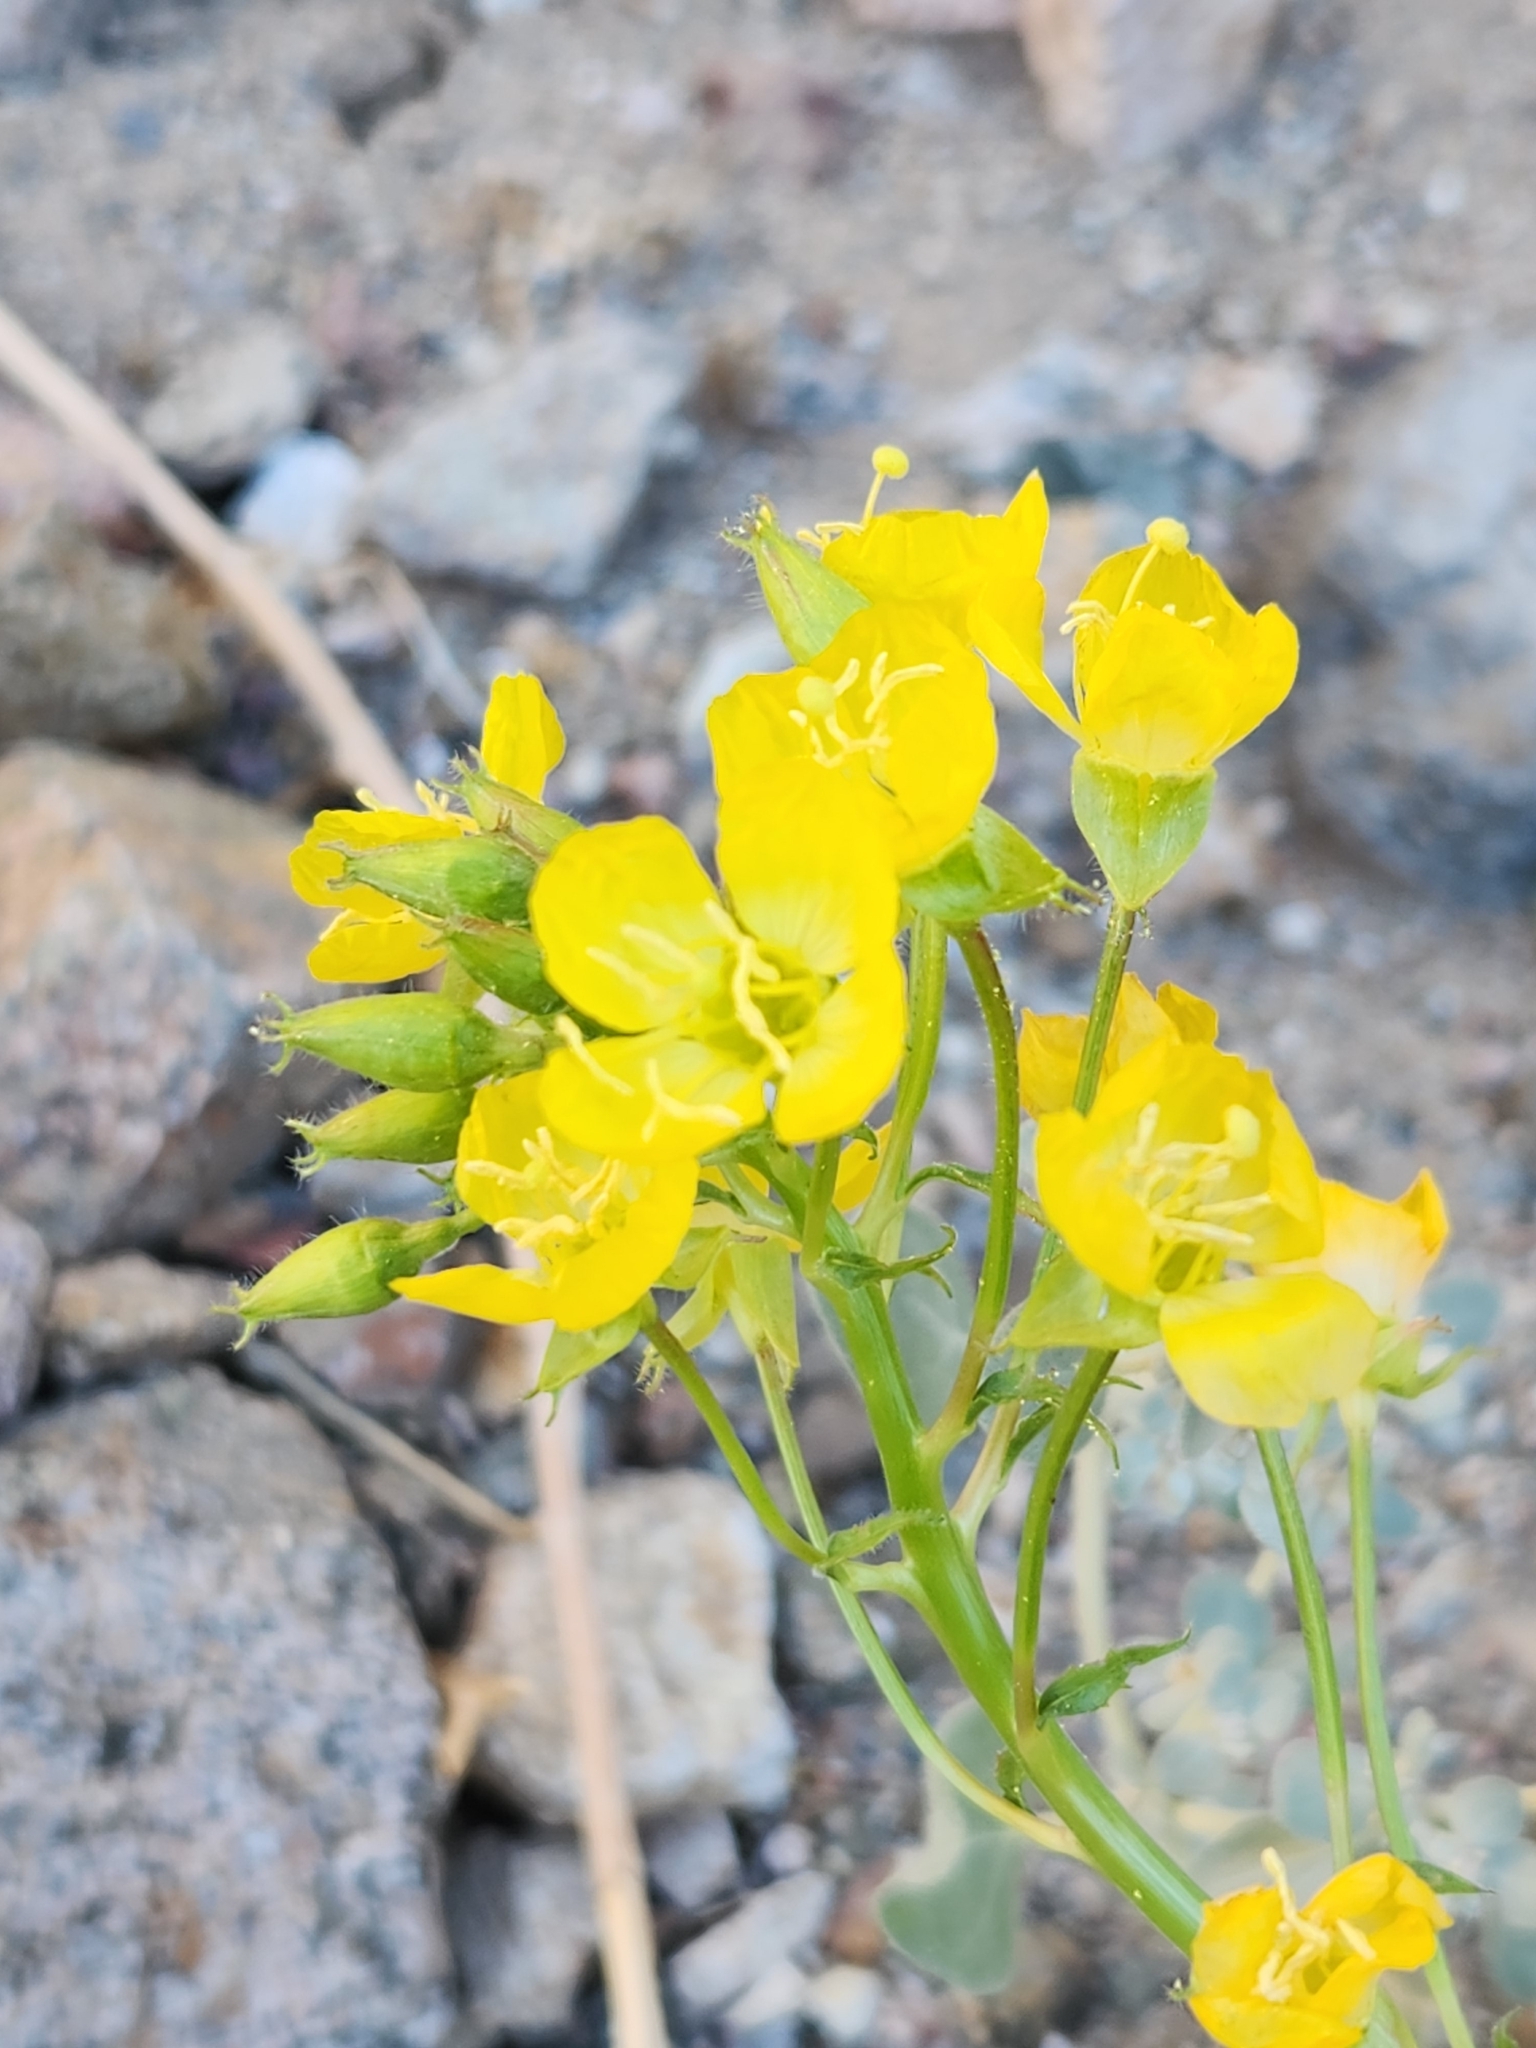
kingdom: Plantae
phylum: Tracheophyta
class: Magnoliopsida
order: Myrtales
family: Onagraceae
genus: Chylismia
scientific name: Chylismia brevipes
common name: Yellow cups
